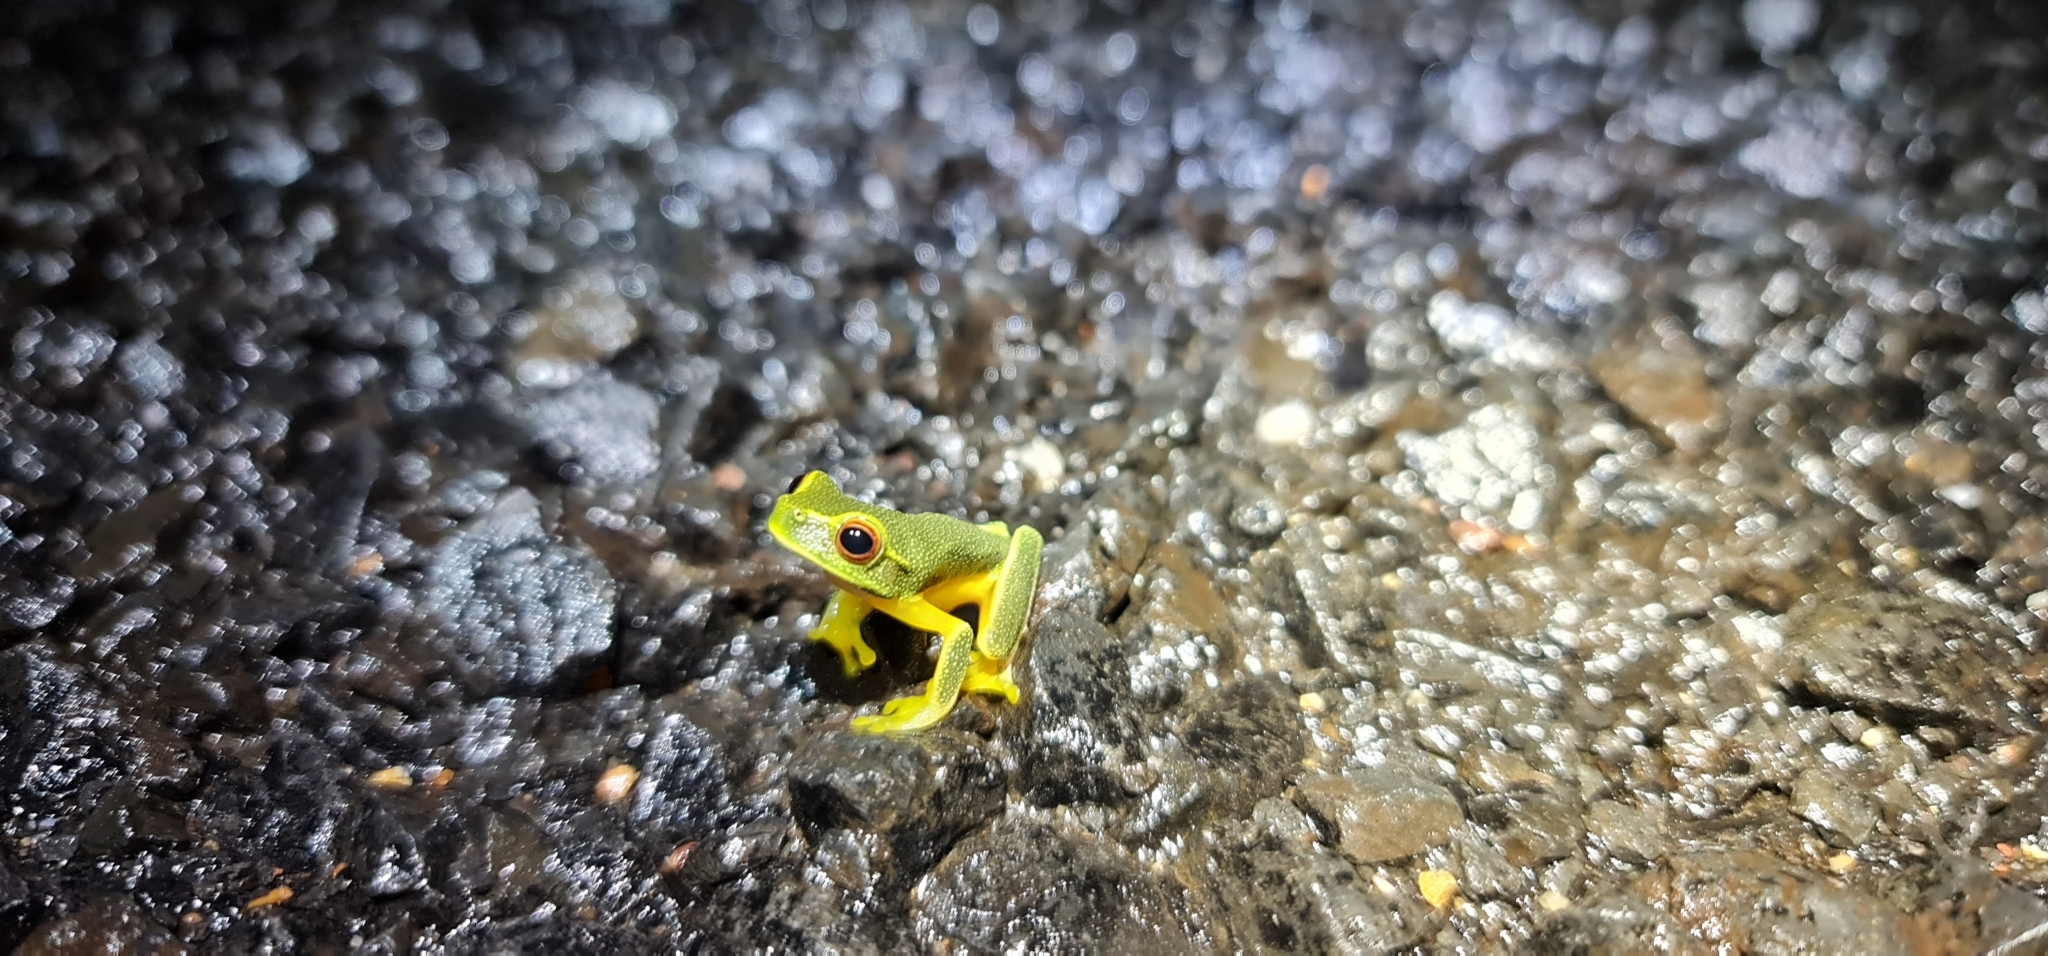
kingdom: Animalia
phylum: Chordata
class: Amphibia
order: Anura
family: Pelodryadidae
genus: Ranoidea
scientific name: Ranoidea gracilenta
